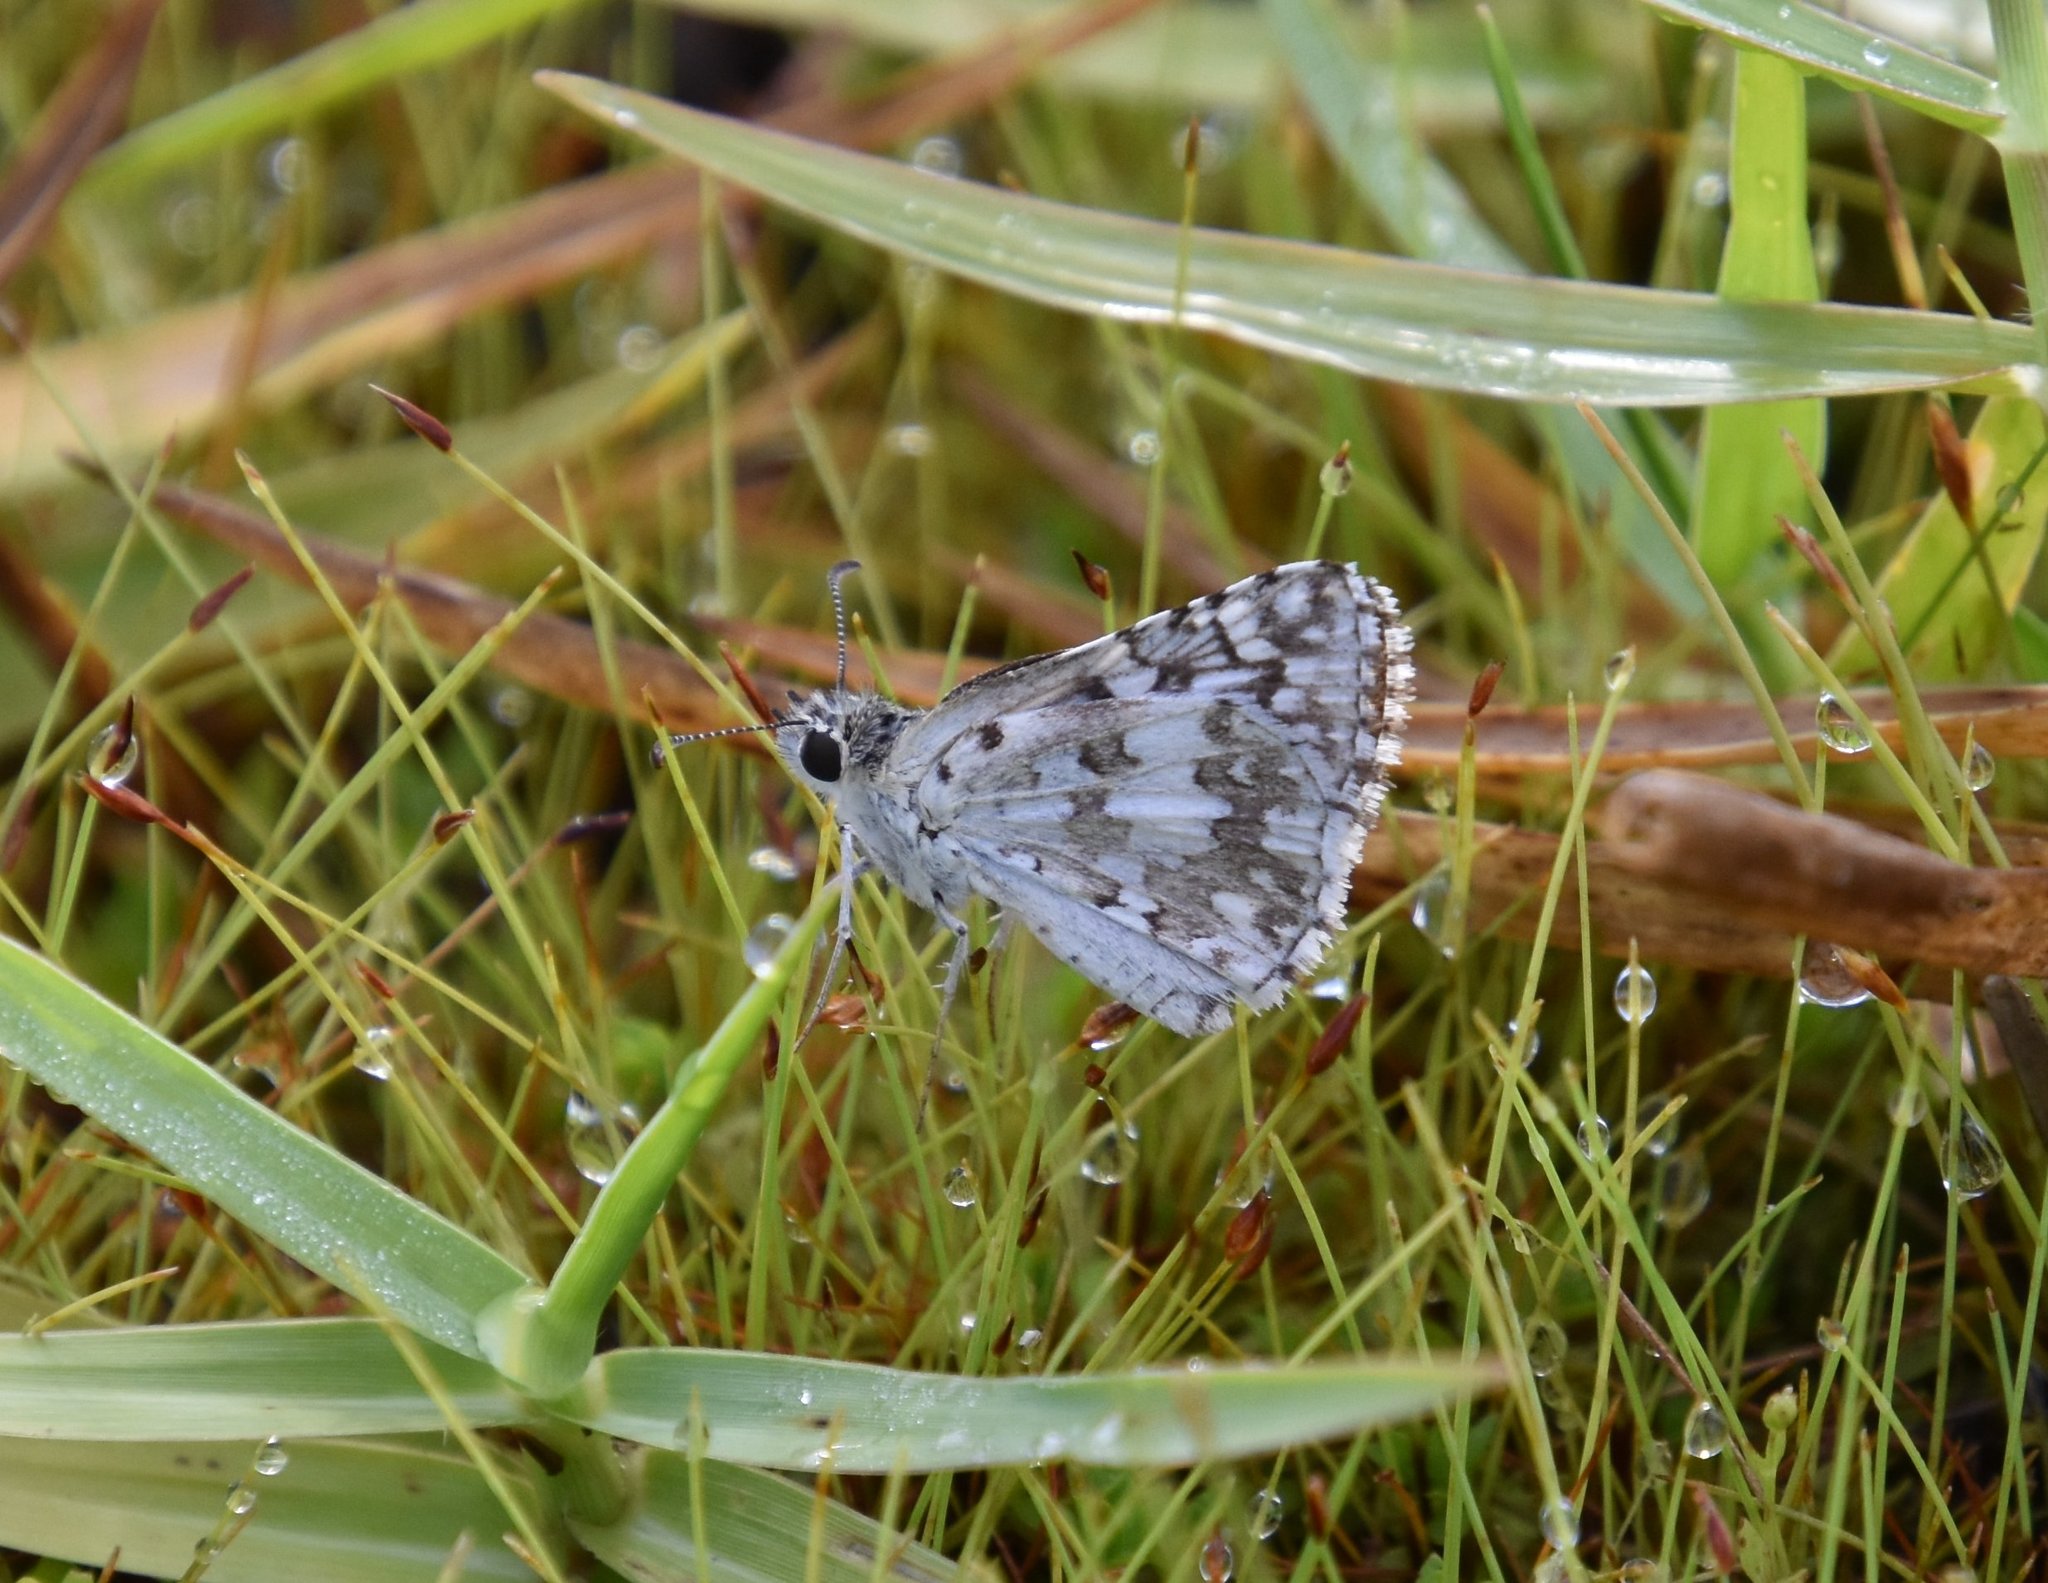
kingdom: Animalia
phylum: Arthropoda
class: Insecta
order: Lepidoptera
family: Hesperiidae
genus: Burnsius
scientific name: Burnsius albezens
